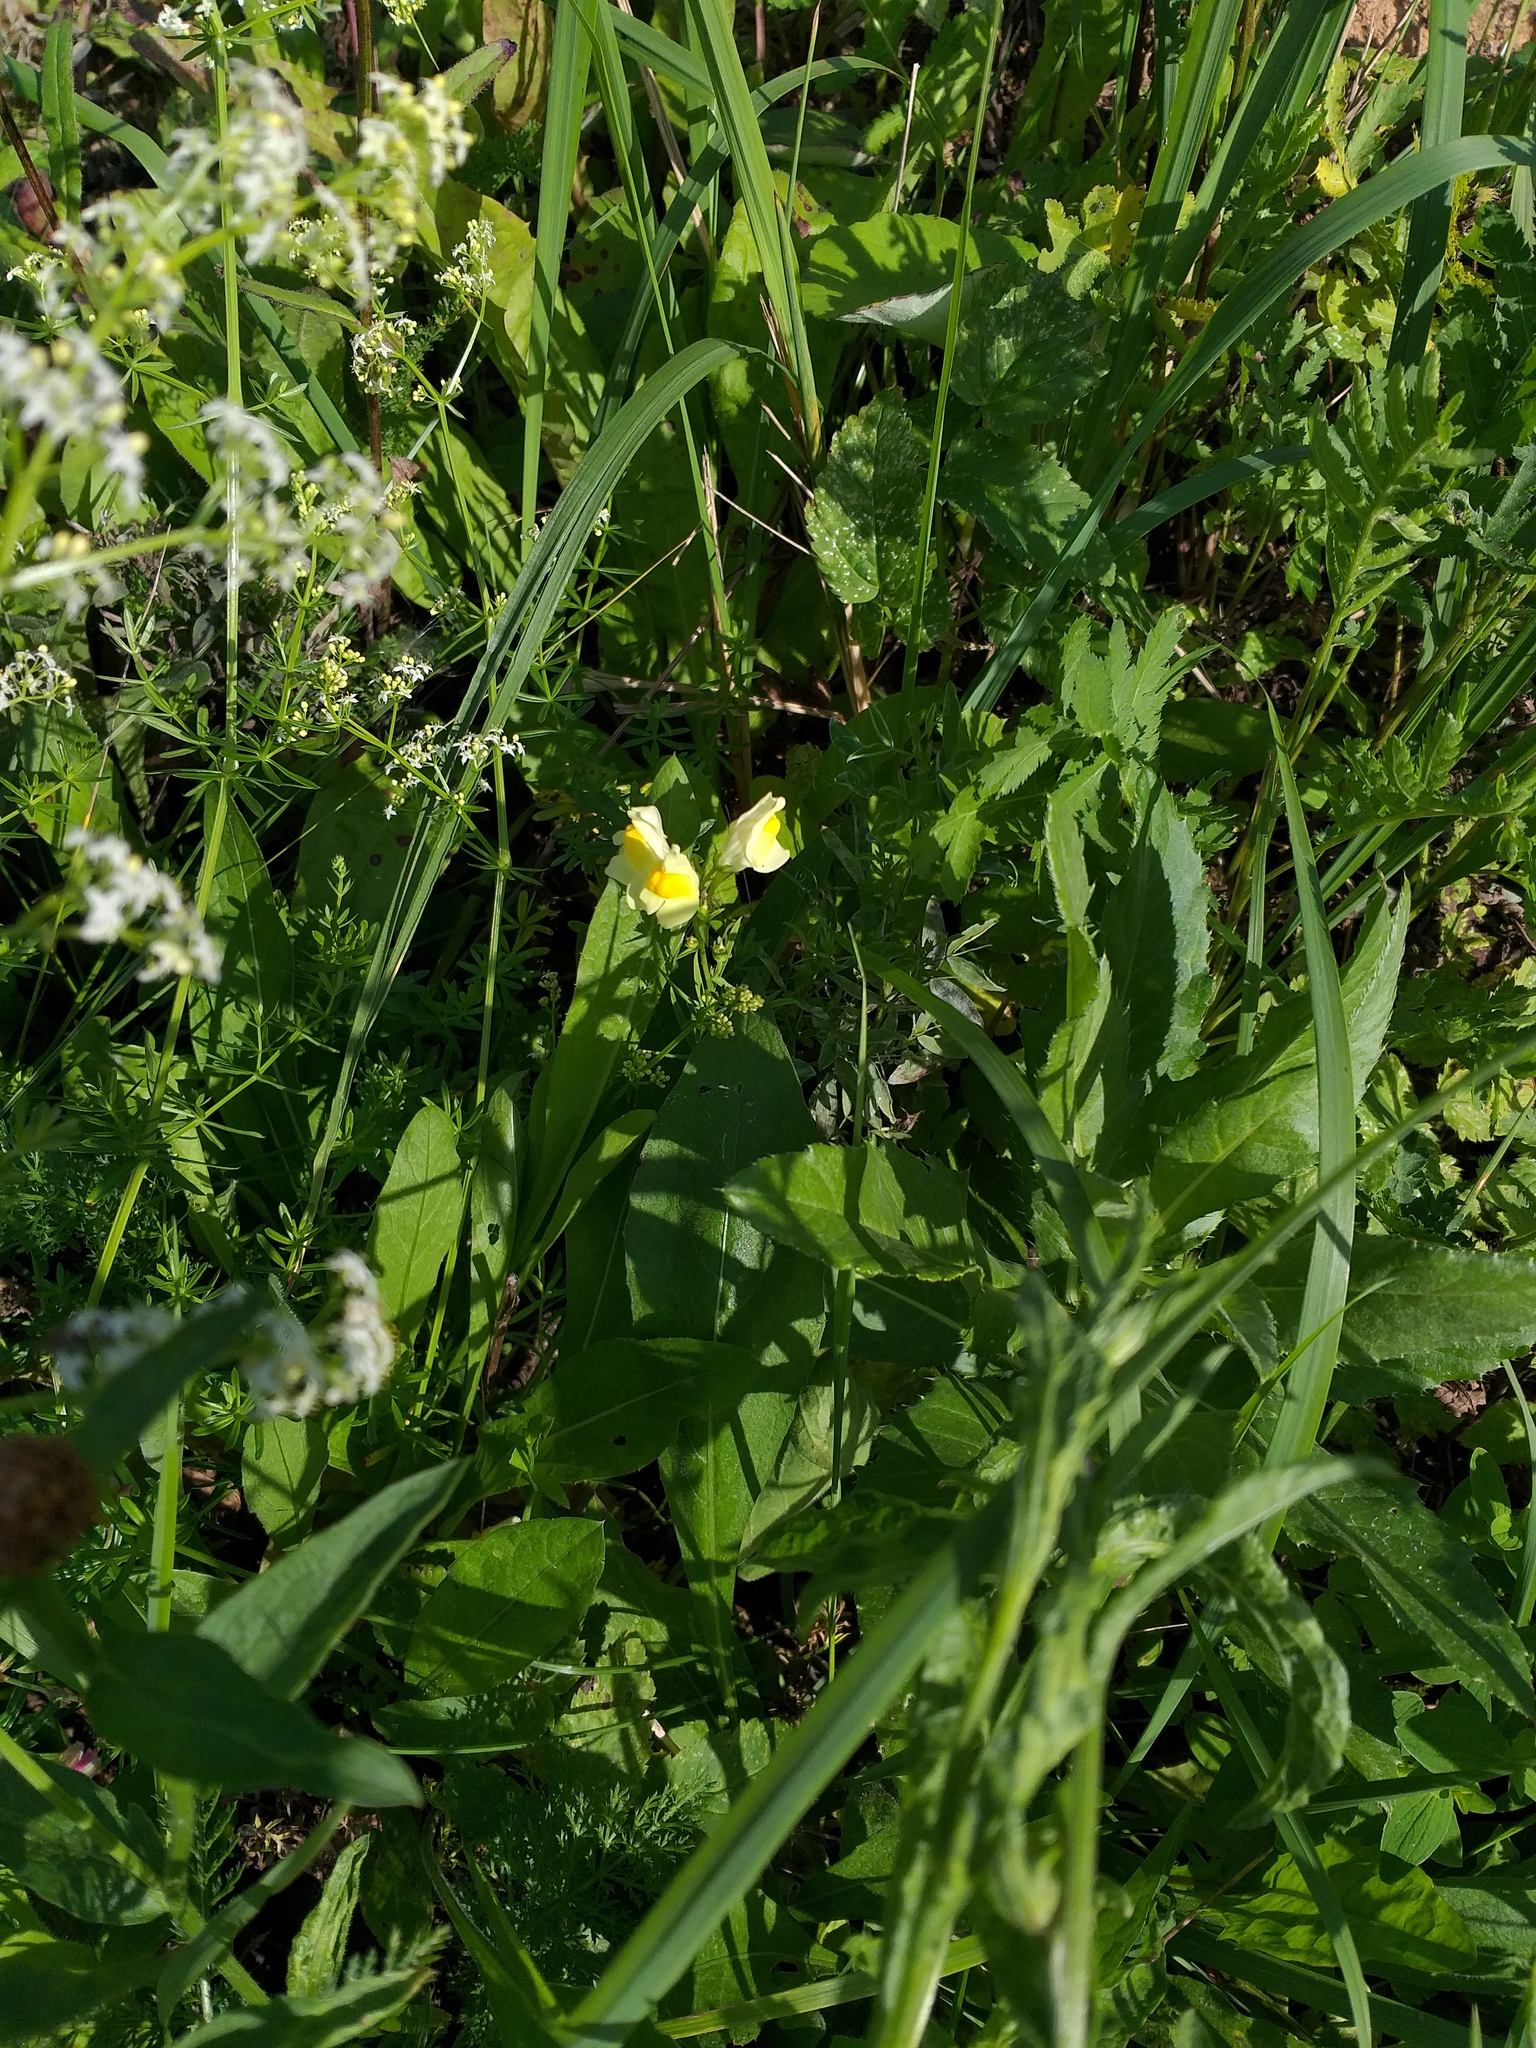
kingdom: Plantae
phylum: Tracheophyta
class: Magnoliopsida
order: Lamiales
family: Plantaginaceae
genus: Linaria
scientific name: Linaria vulgaris
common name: Butter and eggs
